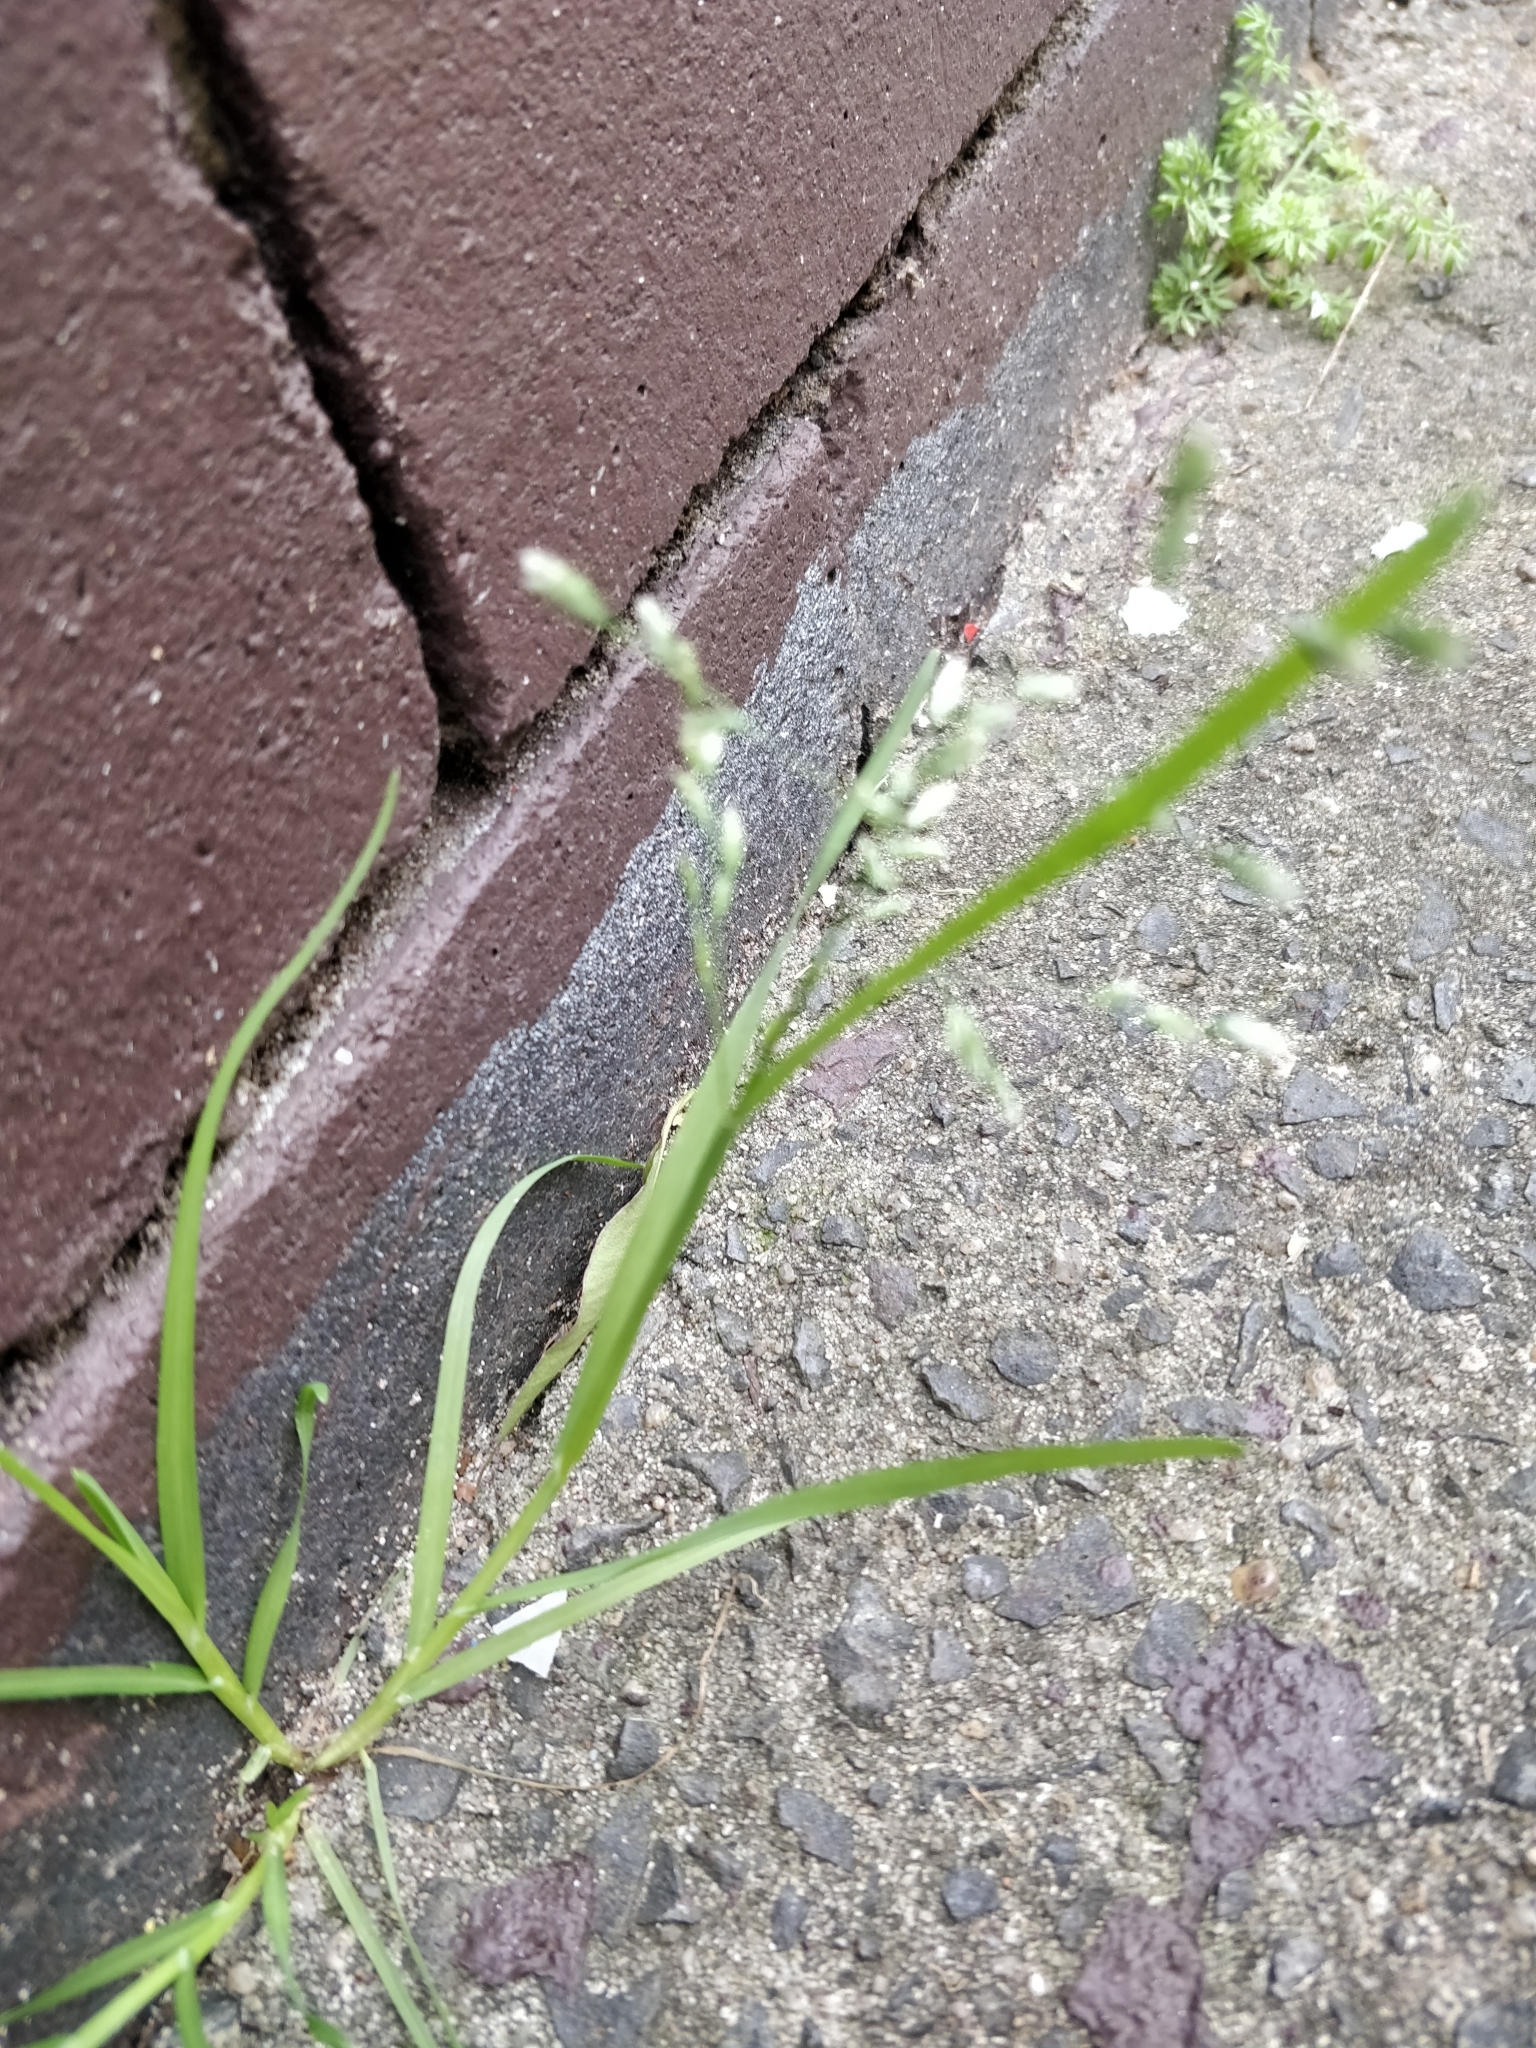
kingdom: Plantae
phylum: Tracheophyta
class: Liliopsida
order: Poales
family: Poaceae
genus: Poa
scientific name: Poa annua
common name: Annual bluegrass
